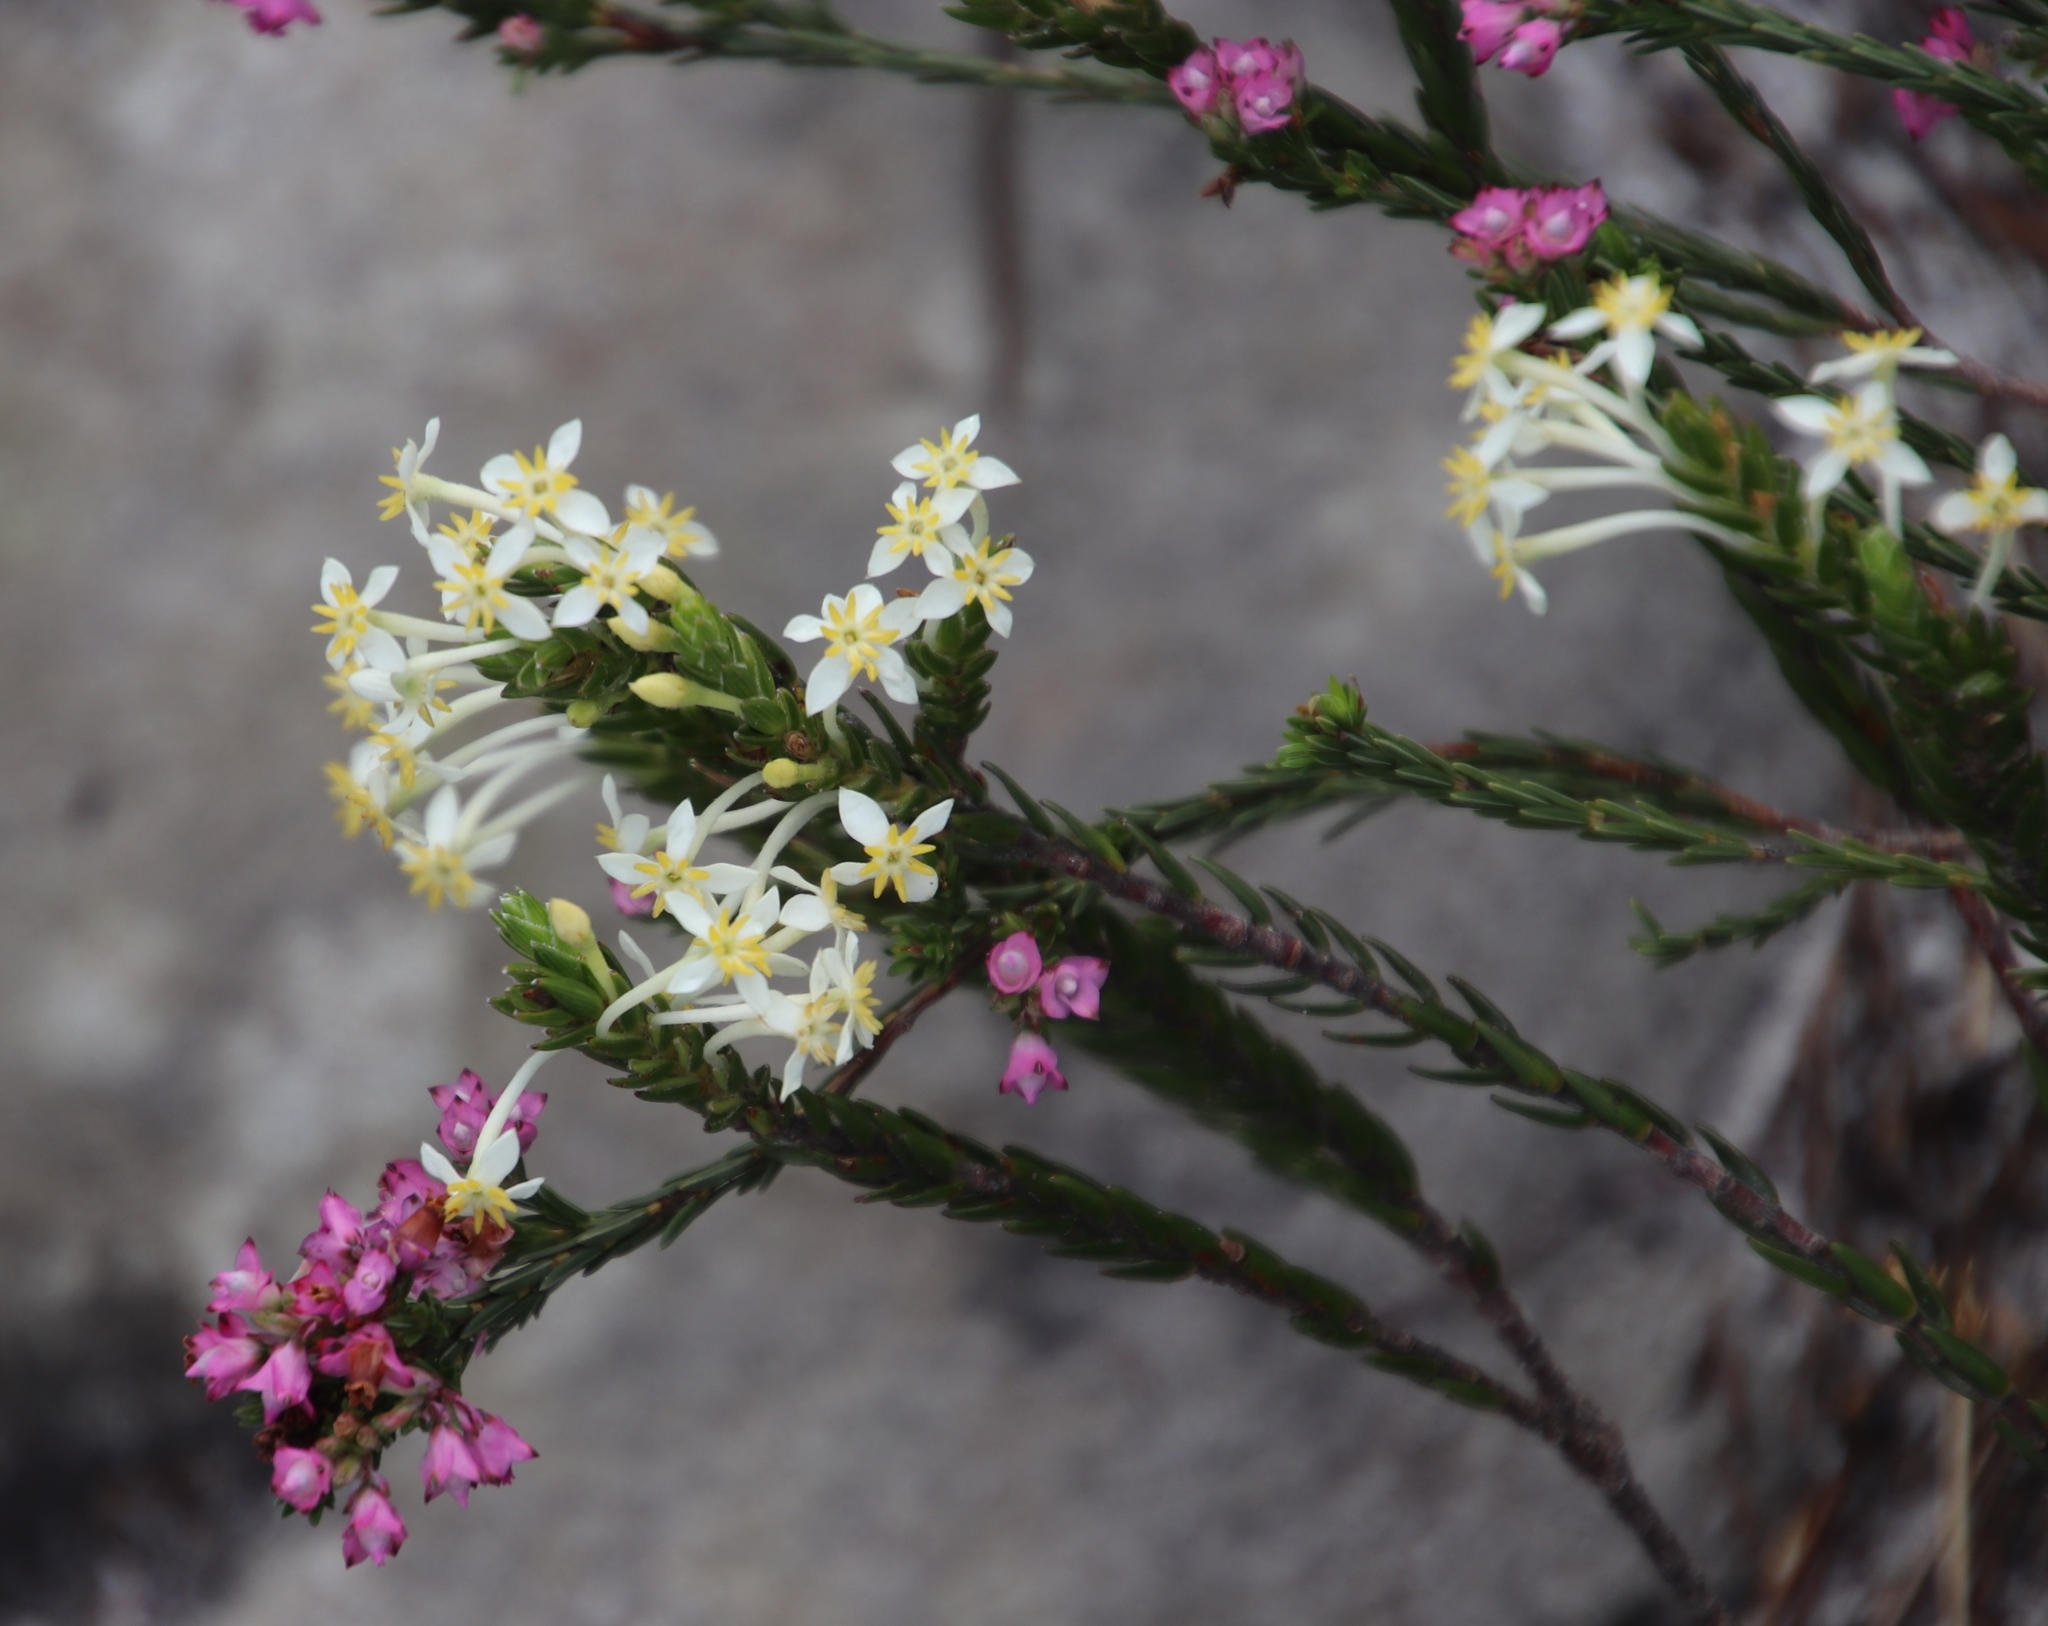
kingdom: Plantae
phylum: Tracheophyta
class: Magnoliopsida
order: Malvales
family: Thymelaeaceae
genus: Struthiola
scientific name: Struthiola ciliata
